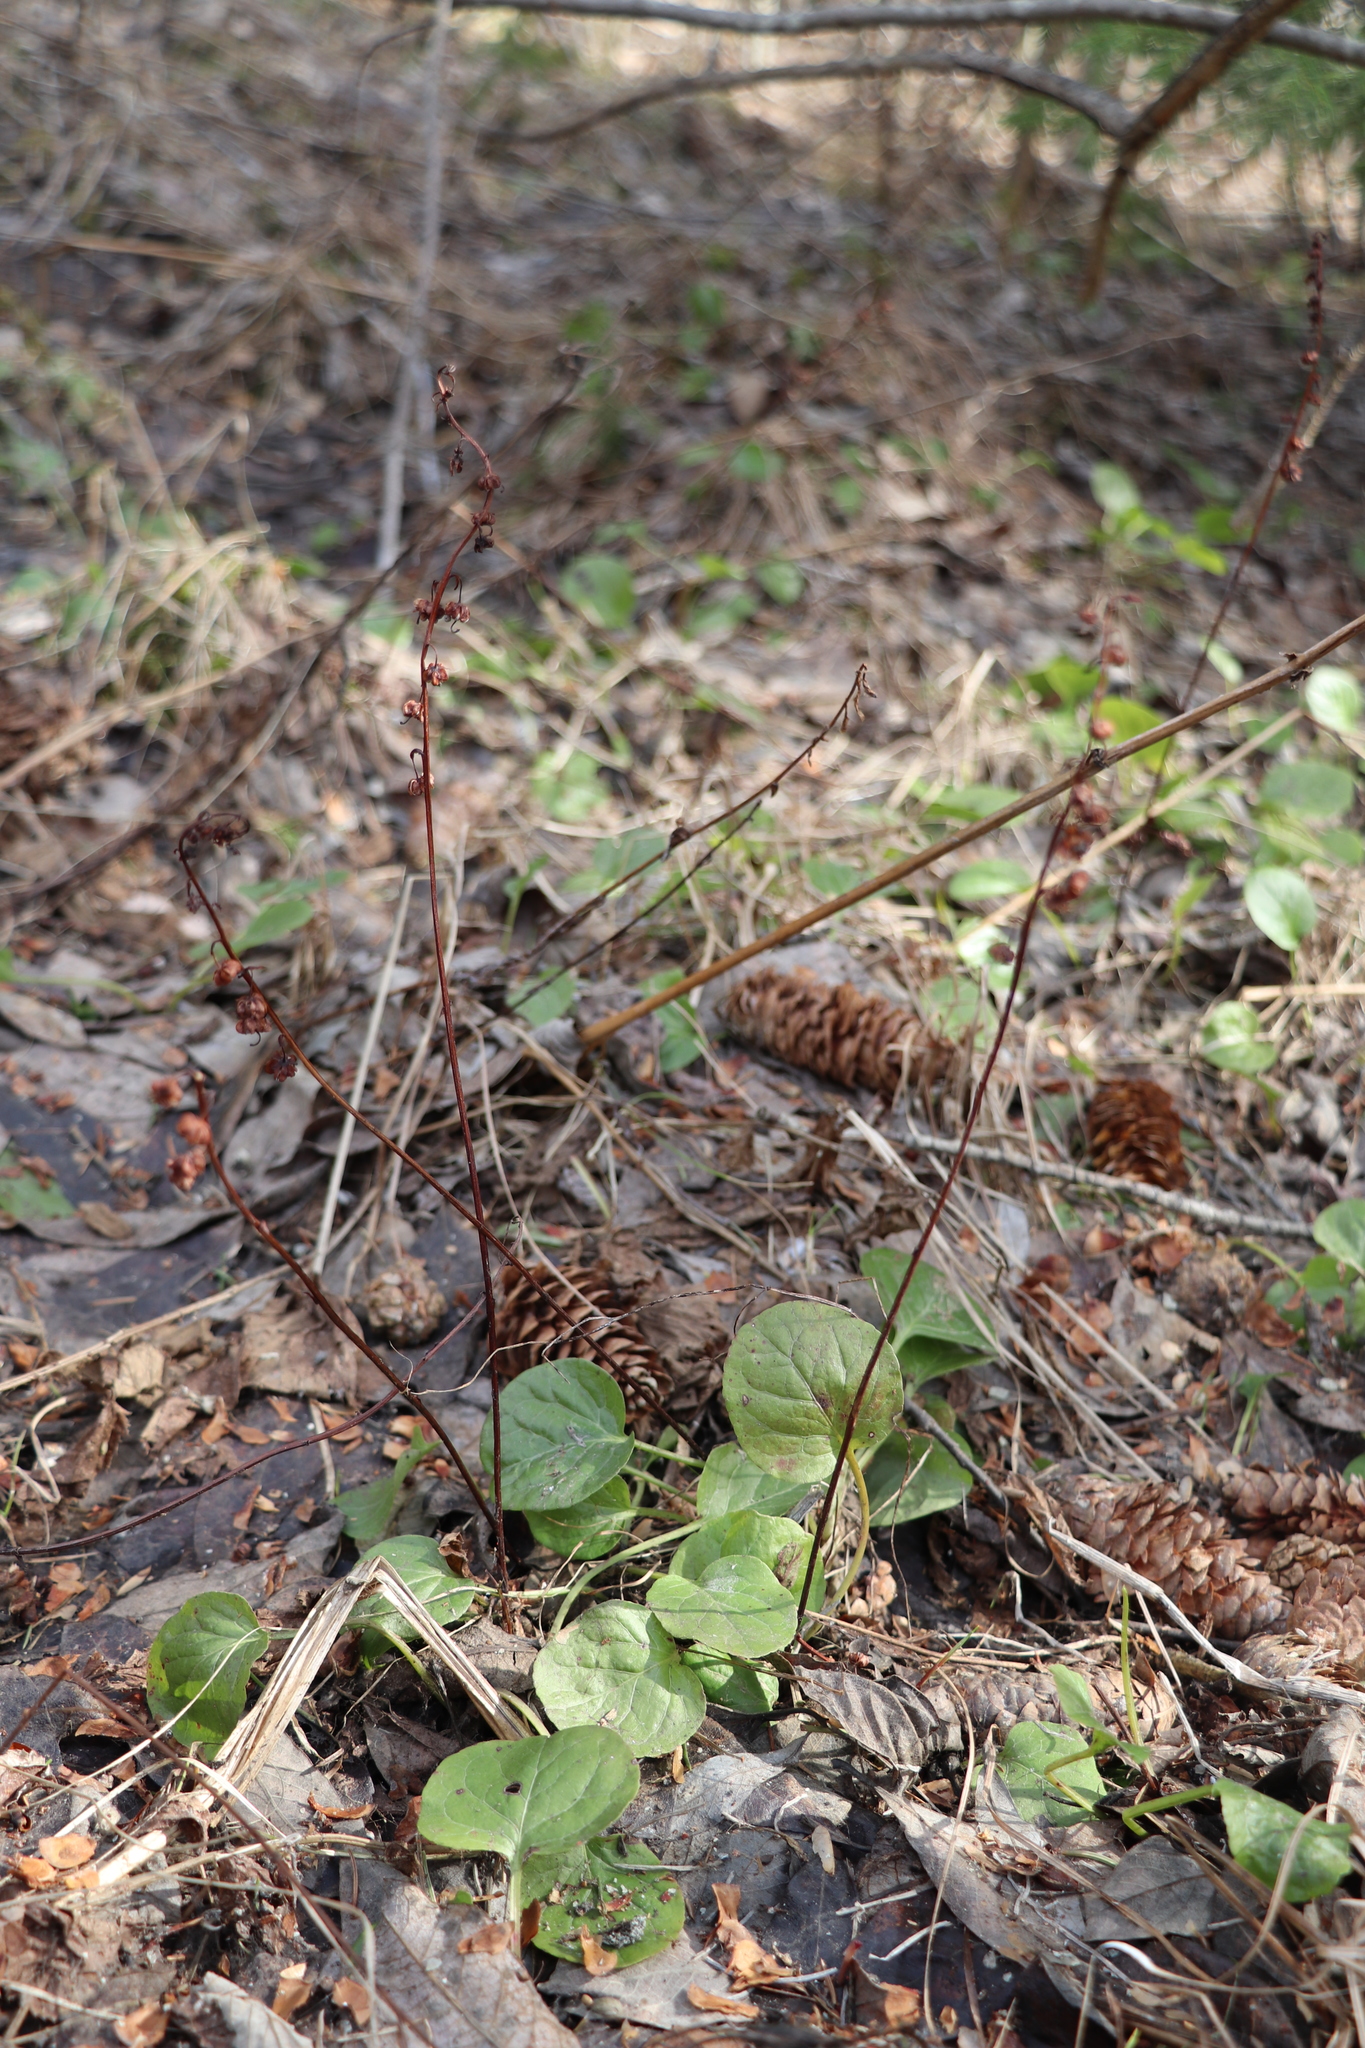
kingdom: Plantae
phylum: Tracheophyta
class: Magnoliopsida
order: Ericales
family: Ericaceae
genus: Pyrola
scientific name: Pyrola rotundifolia
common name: Round-leaved wintergreen
